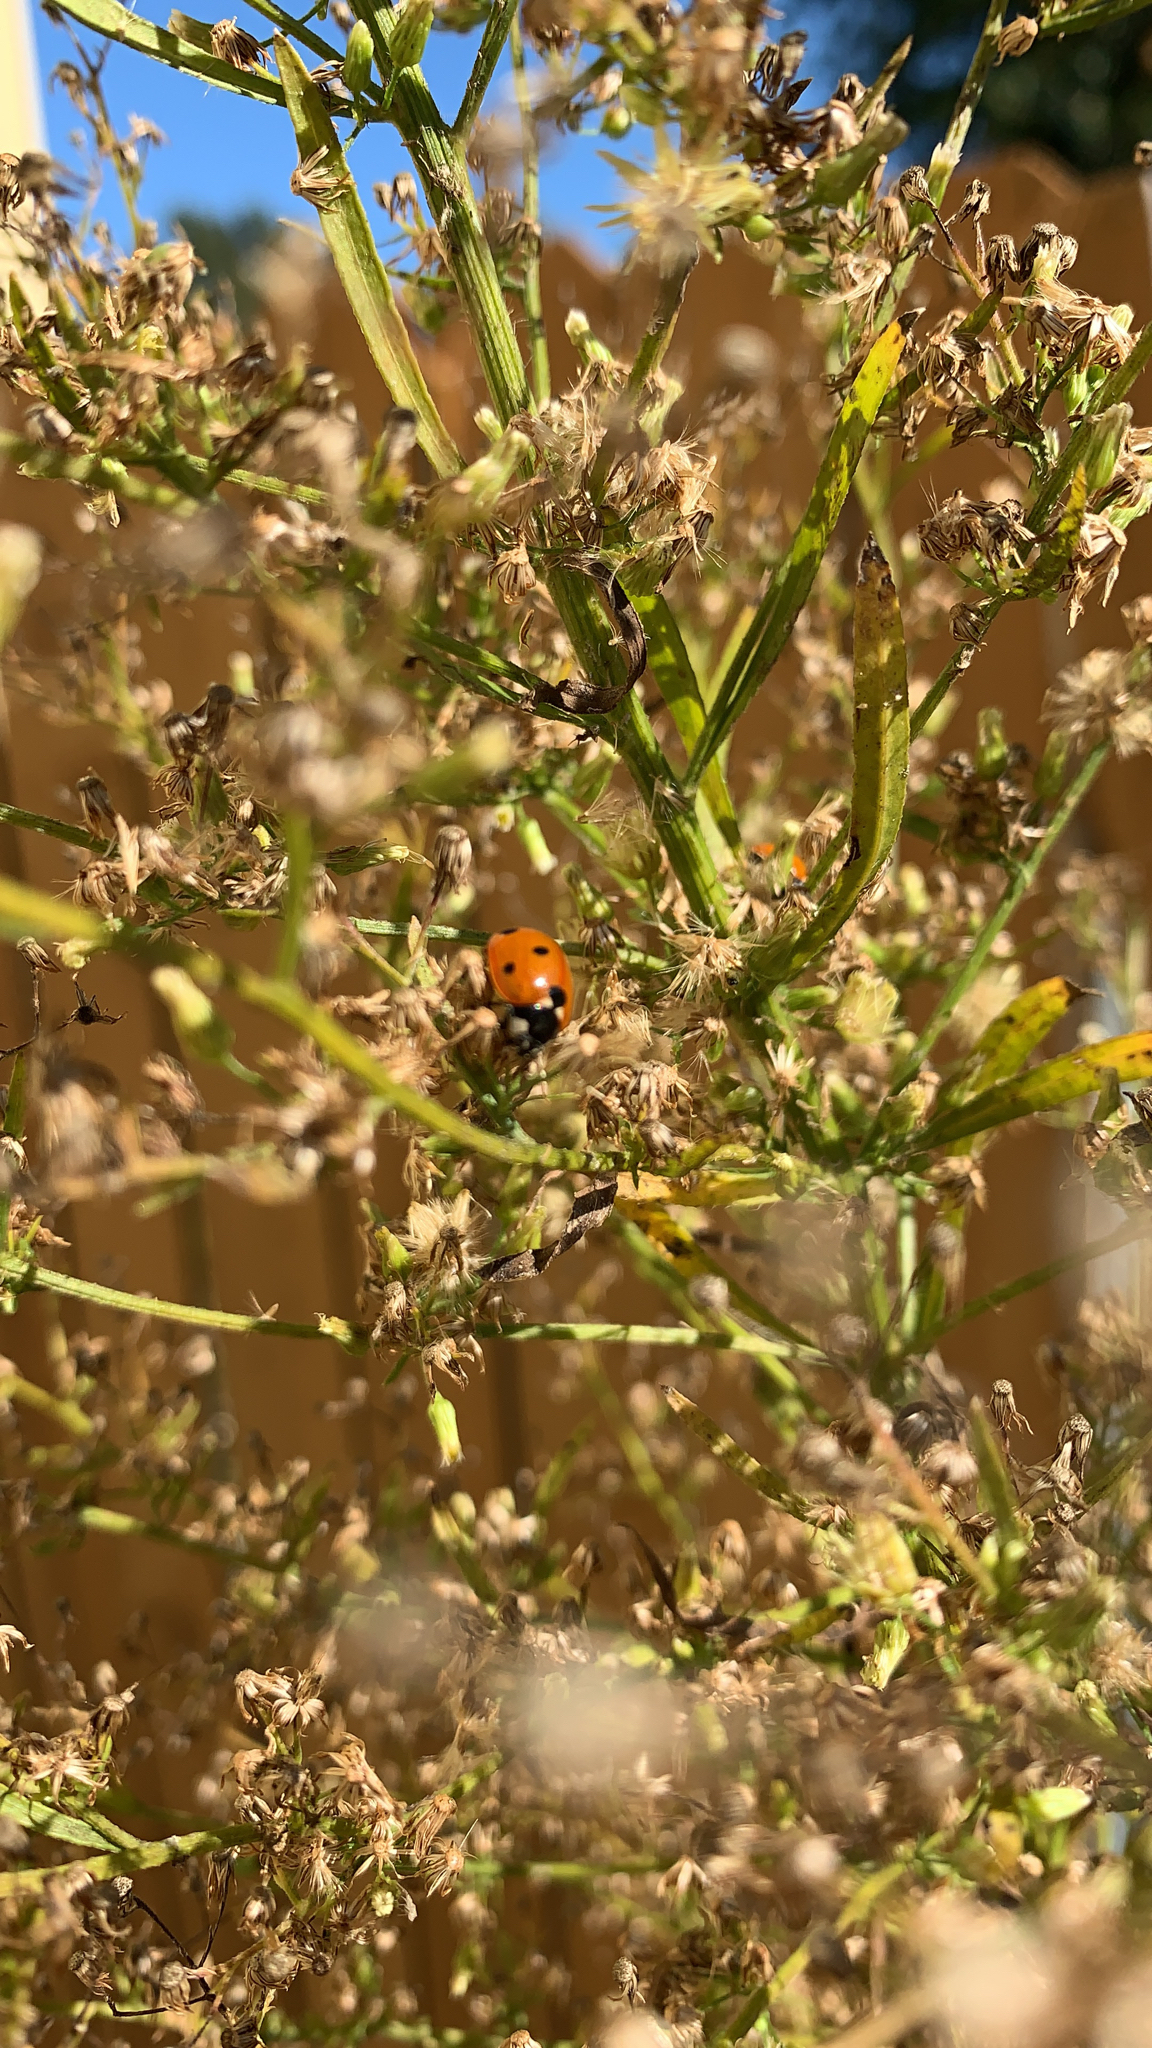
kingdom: Animalia
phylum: Arthropoda
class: Insecta
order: Coleoptera
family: Coccinellidae
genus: Coccinella
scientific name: Coccinella septempunctata
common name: Sevenspotted lady beetle
